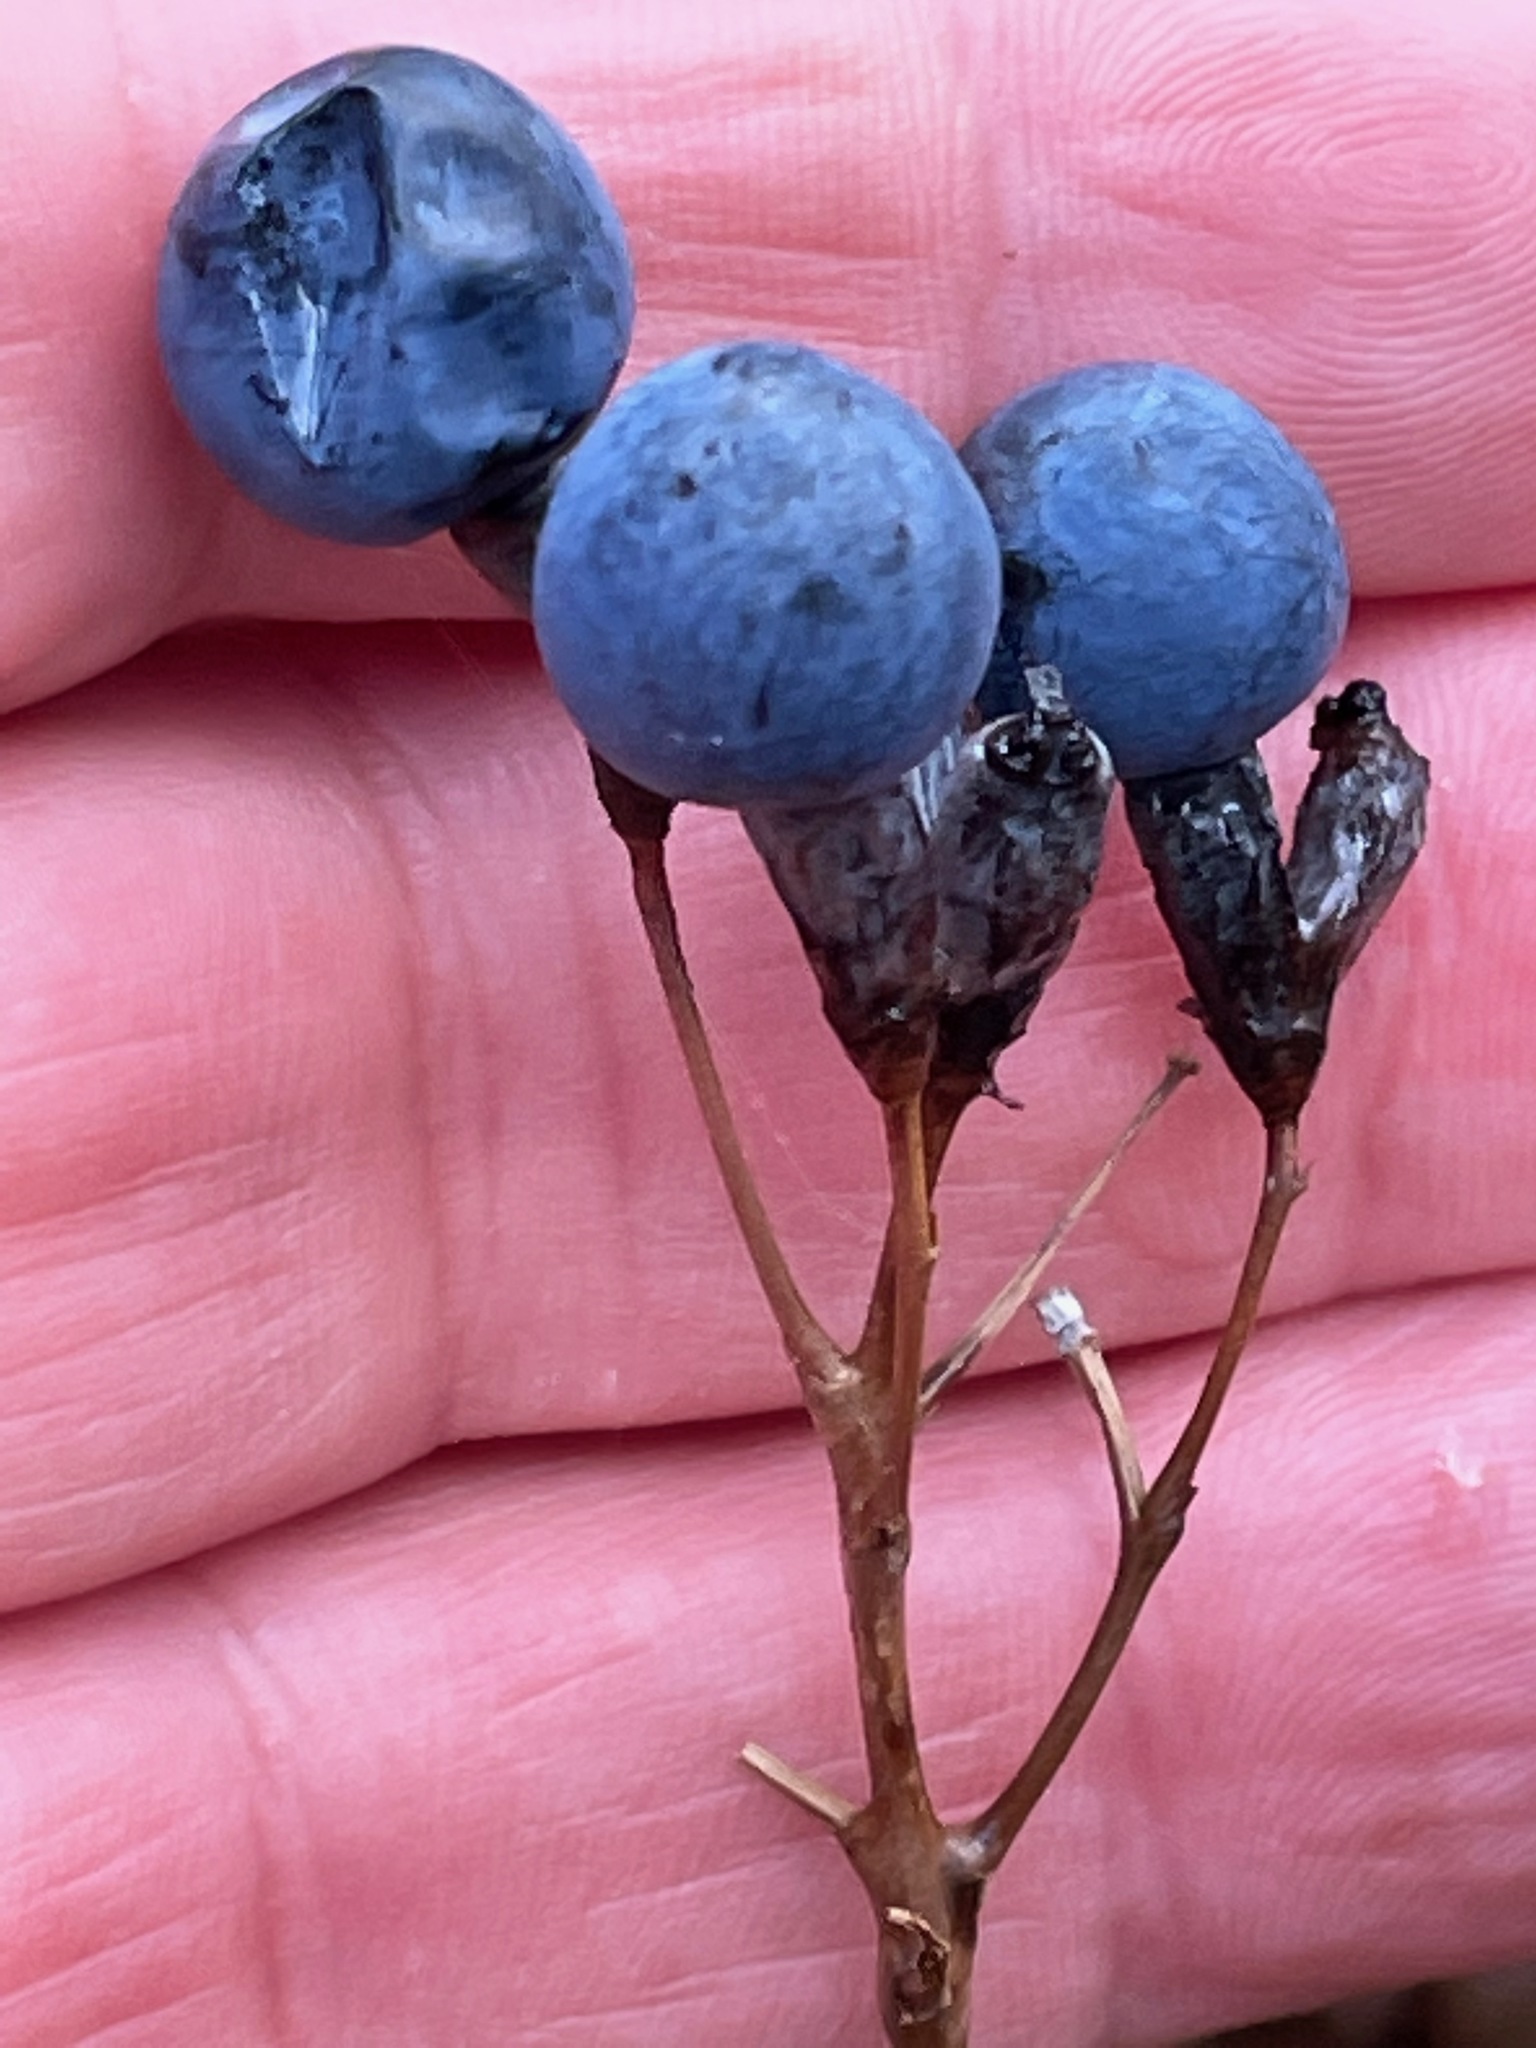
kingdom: Plantae
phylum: Tracheophyta
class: Magnoliopsida
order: Ranunculales
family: Berberidaceae
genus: Caulophyllum
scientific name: Caulophyllum thalictroides
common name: Blue cohosh
